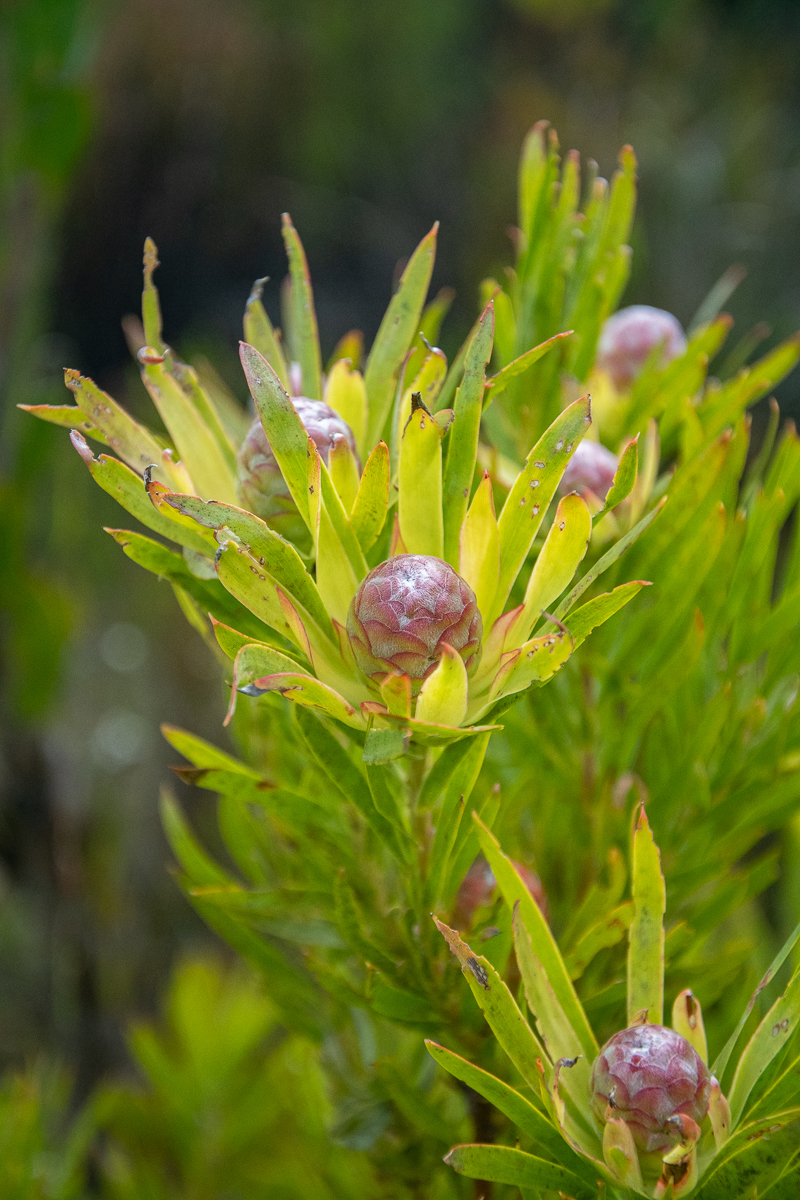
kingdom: Plantae
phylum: Tracheophyta
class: Magnoliopsida
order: Proteales
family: Proteaceae
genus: Leucadendron
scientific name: Leucadendron xanthoconus
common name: Sickle-leaf conebush
